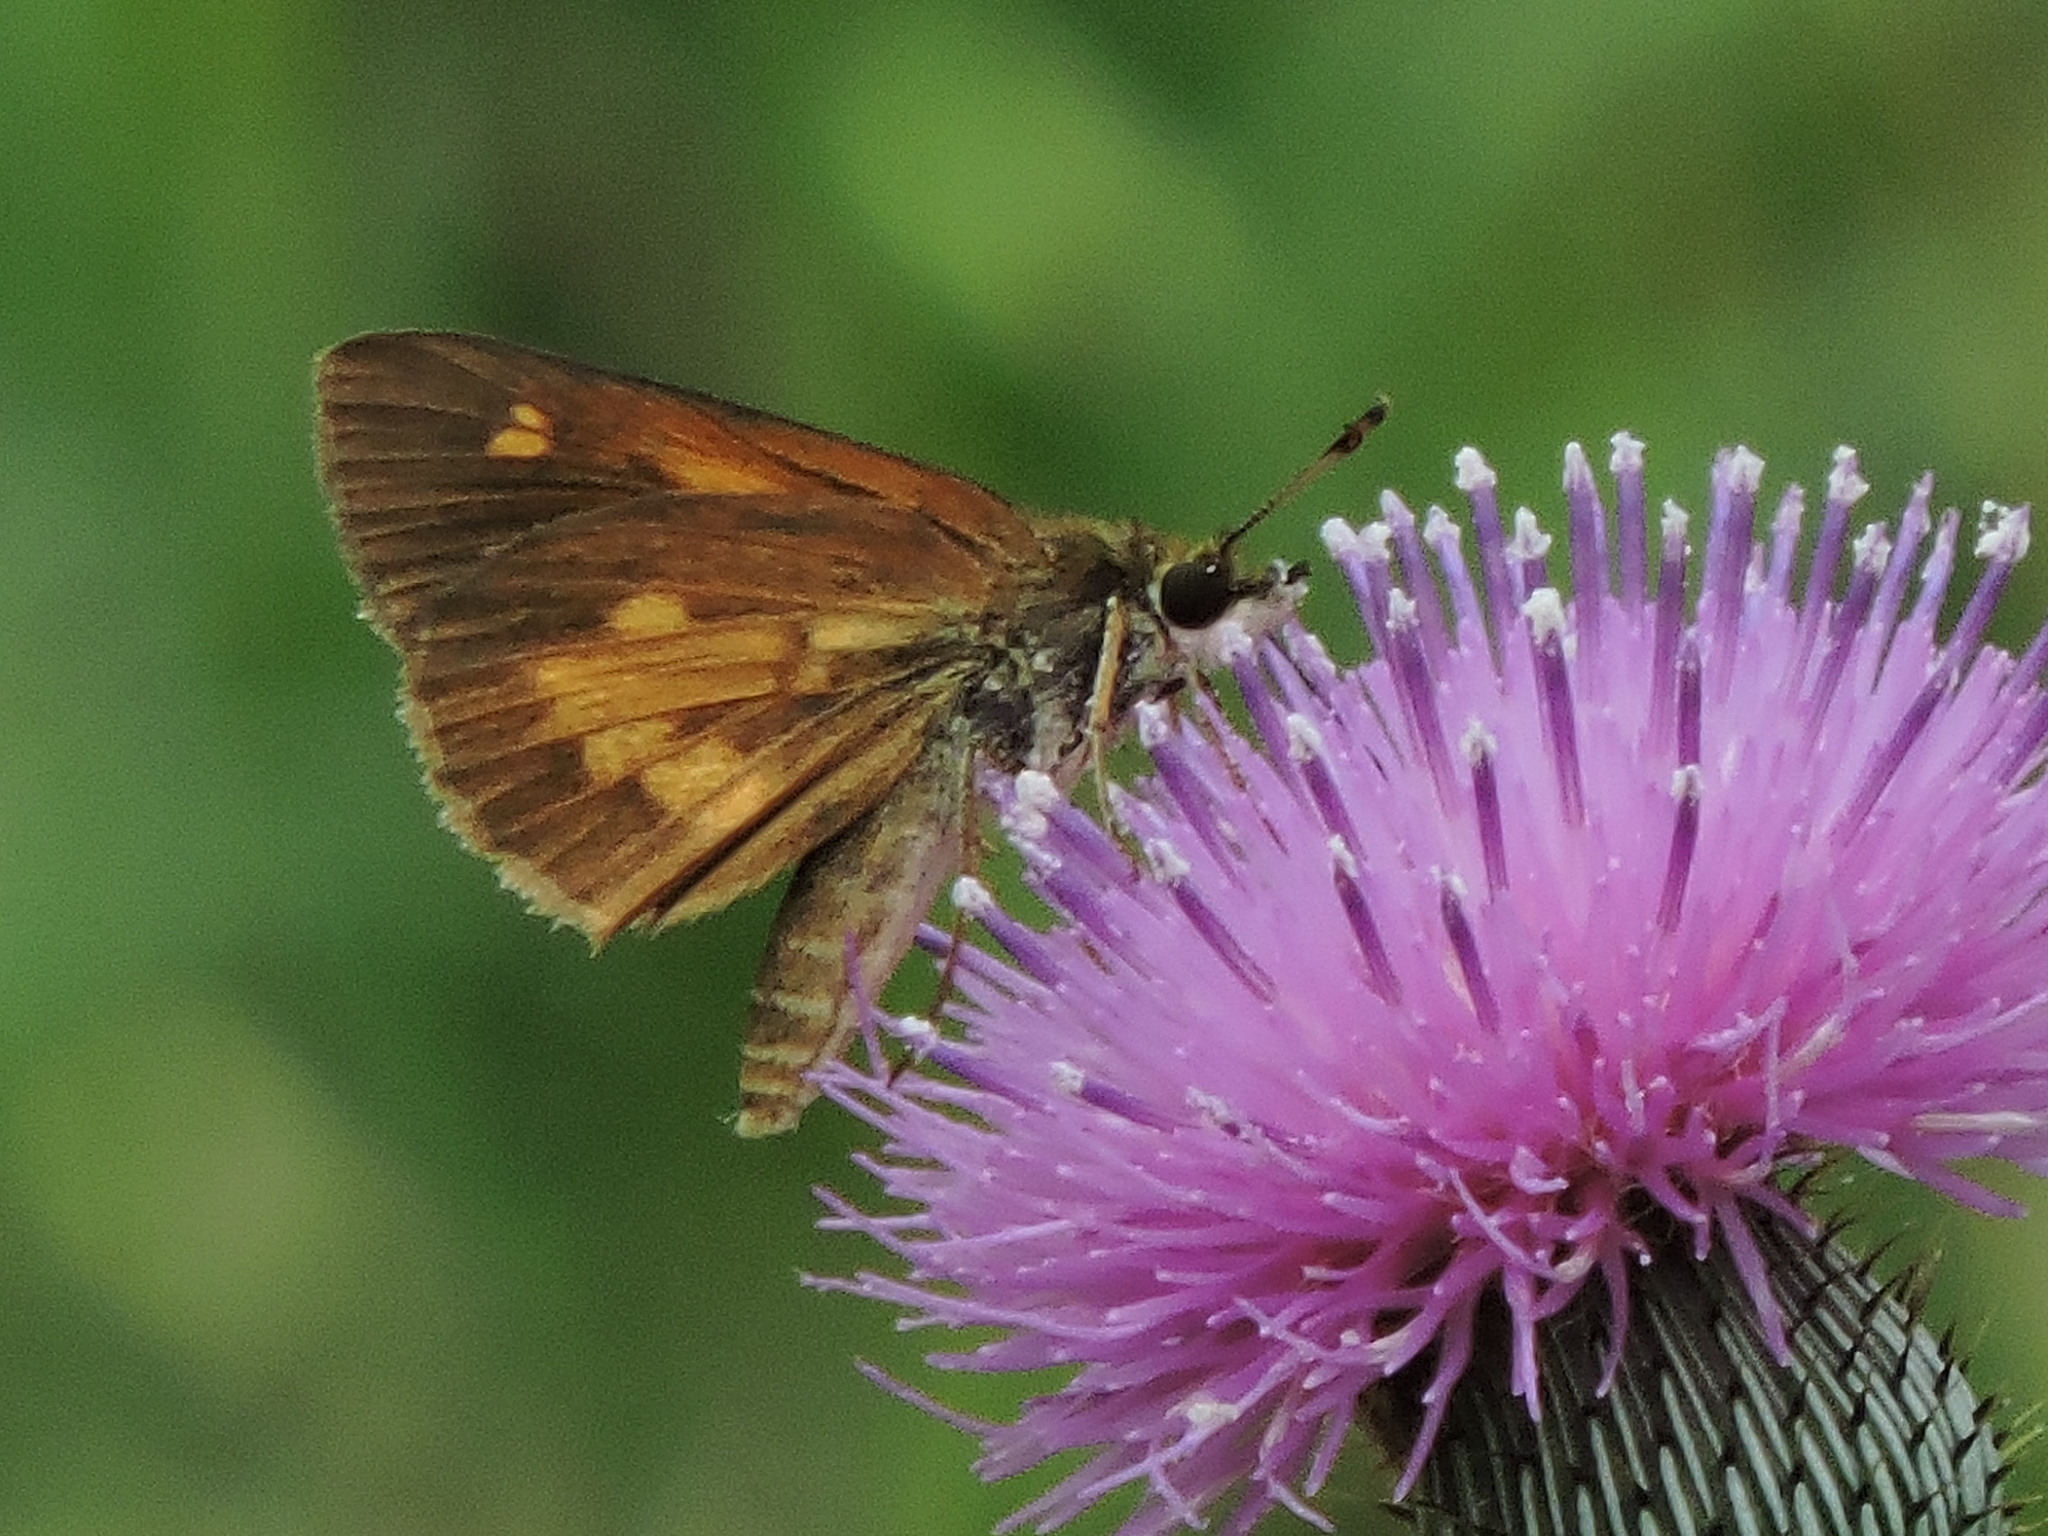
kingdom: Animalia
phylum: Arthropoda
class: Insecta
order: Lepidoptera
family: Hesperiidae
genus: Poanes
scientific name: Poanes viator
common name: Broad-winged skipper
